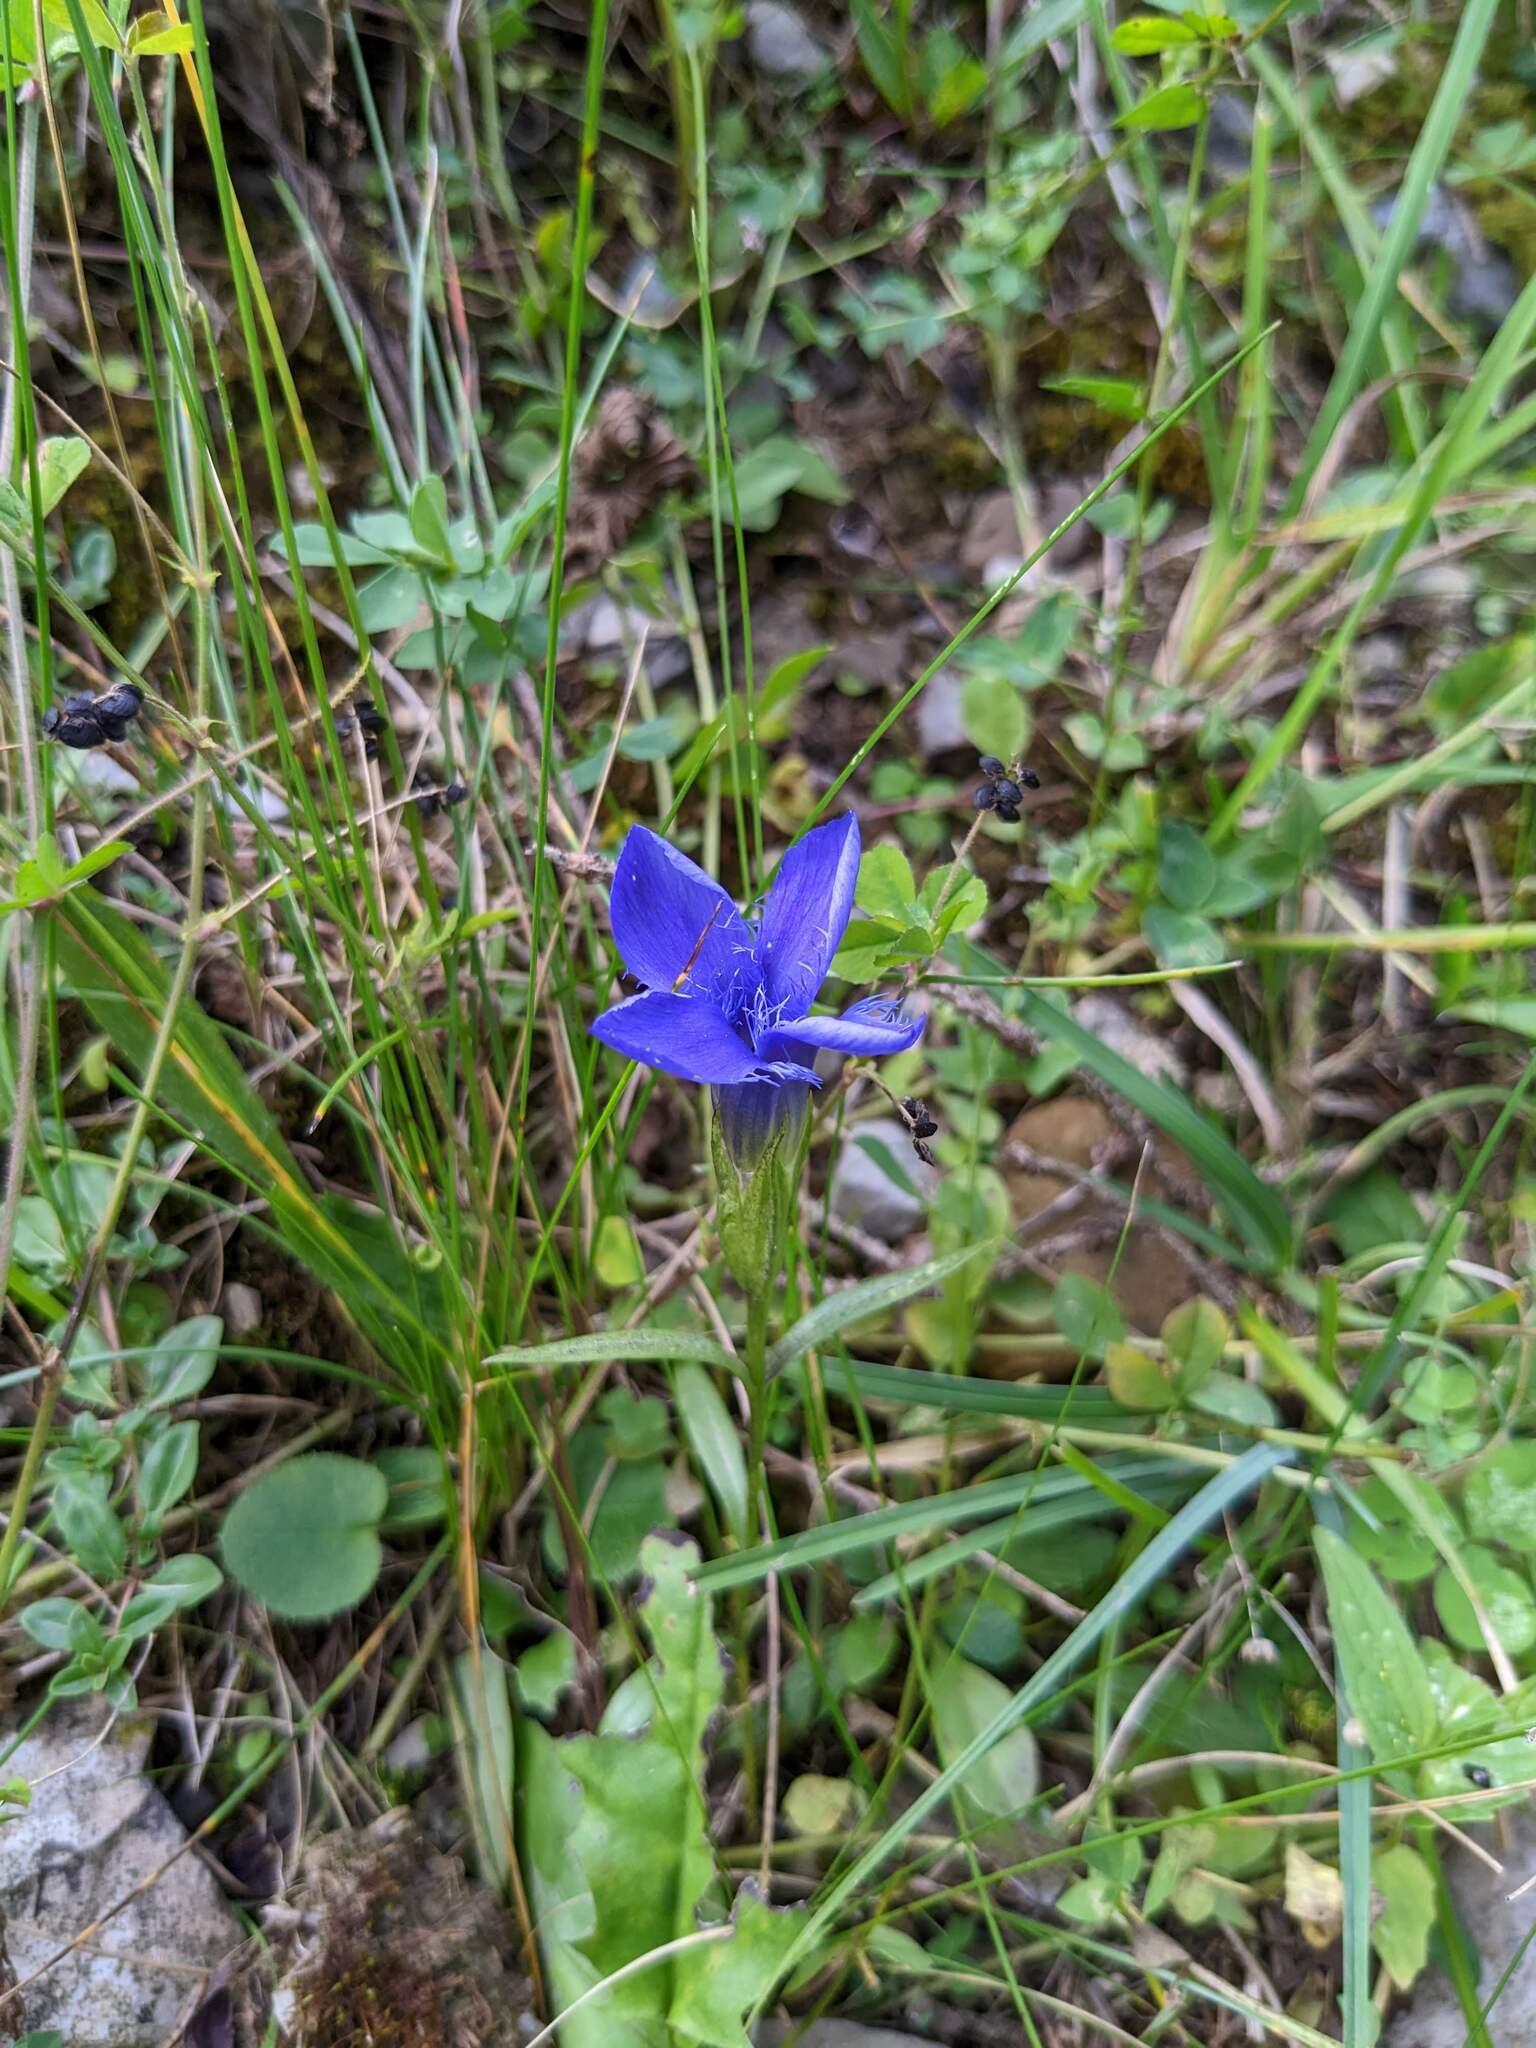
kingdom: Plantae
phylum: Tracheophyta
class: Magnoliopsida
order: Gentianales
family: Gentianaceae
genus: Gentianopsis
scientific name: Gentianopsis ciliata
